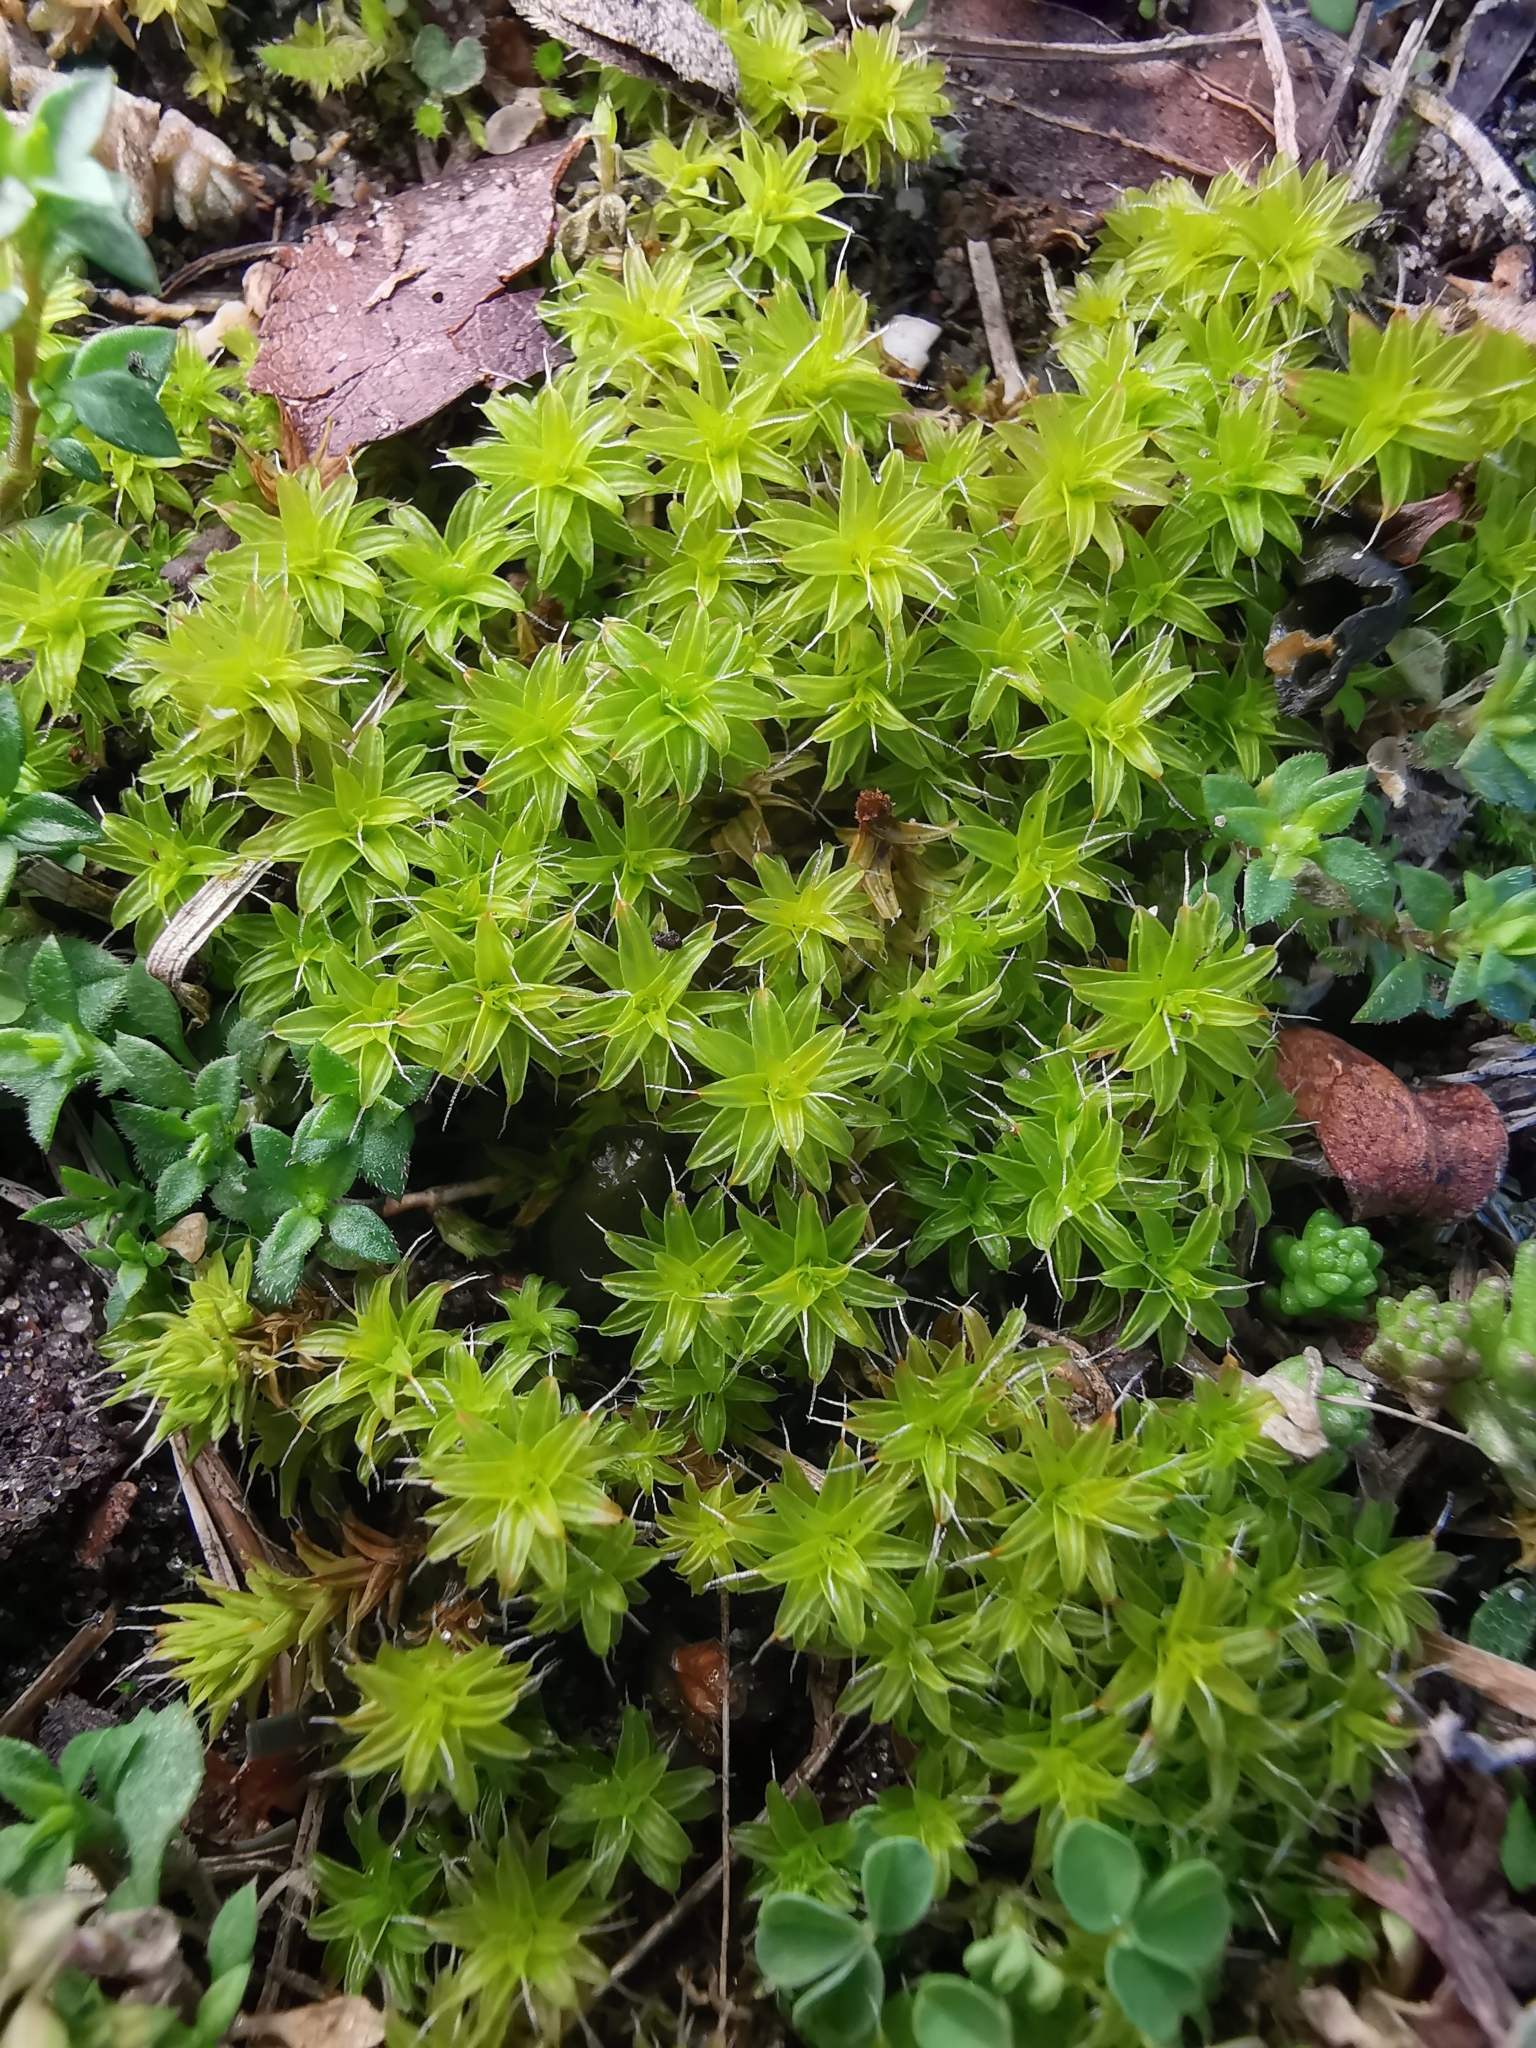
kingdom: Plantae
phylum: Bryophyta
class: Bryopsida
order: Pottiales
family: Pottiaceae
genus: Syntrichia
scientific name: Syntrichia ruralis
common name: Sidewalk screw moss
